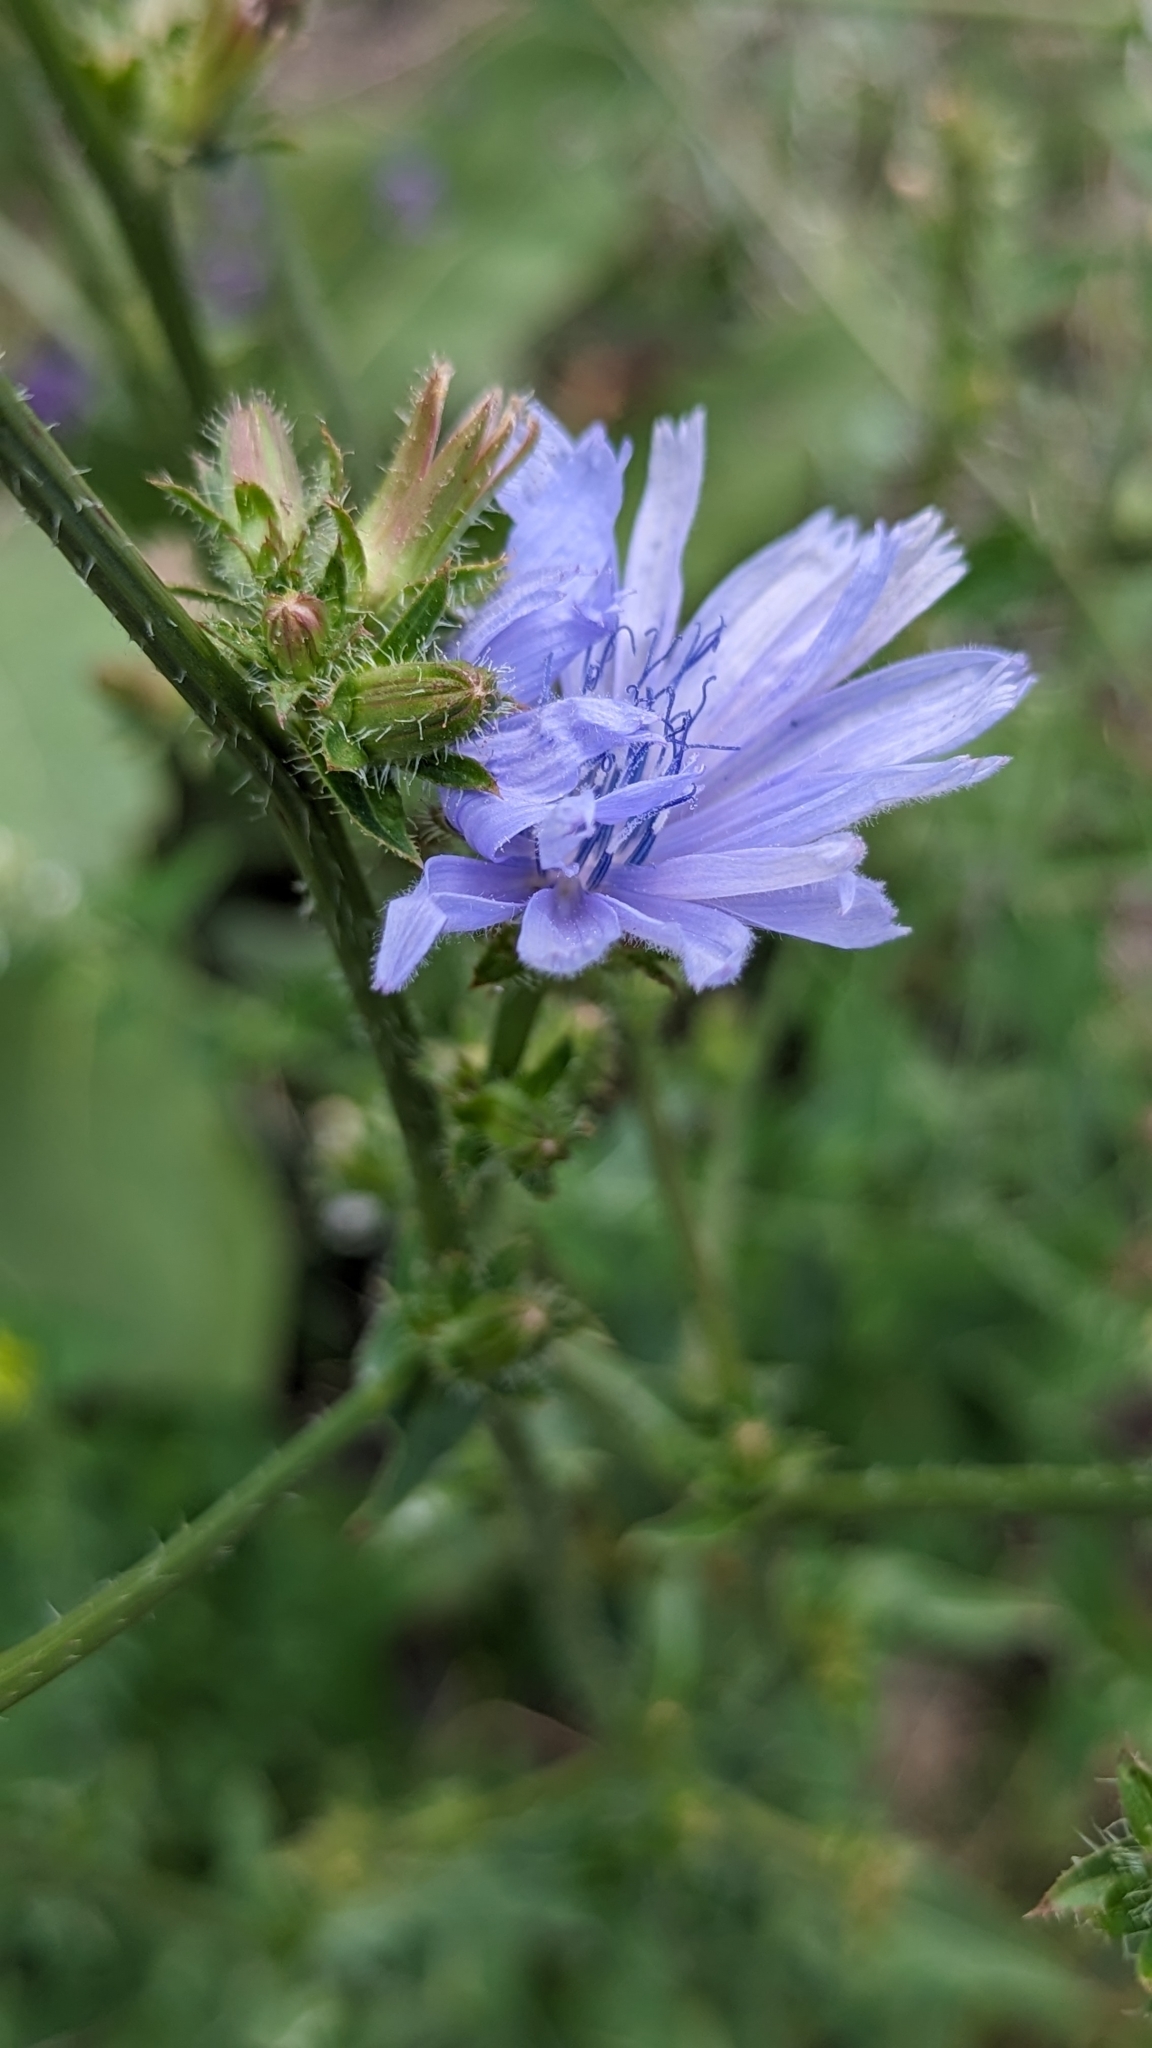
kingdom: Plantae
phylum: Tracheophyta
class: Magnoliopsida
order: Asterales
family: Asteraceae
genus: Cichorium
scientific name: Cichorium intybus
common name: Chicory
